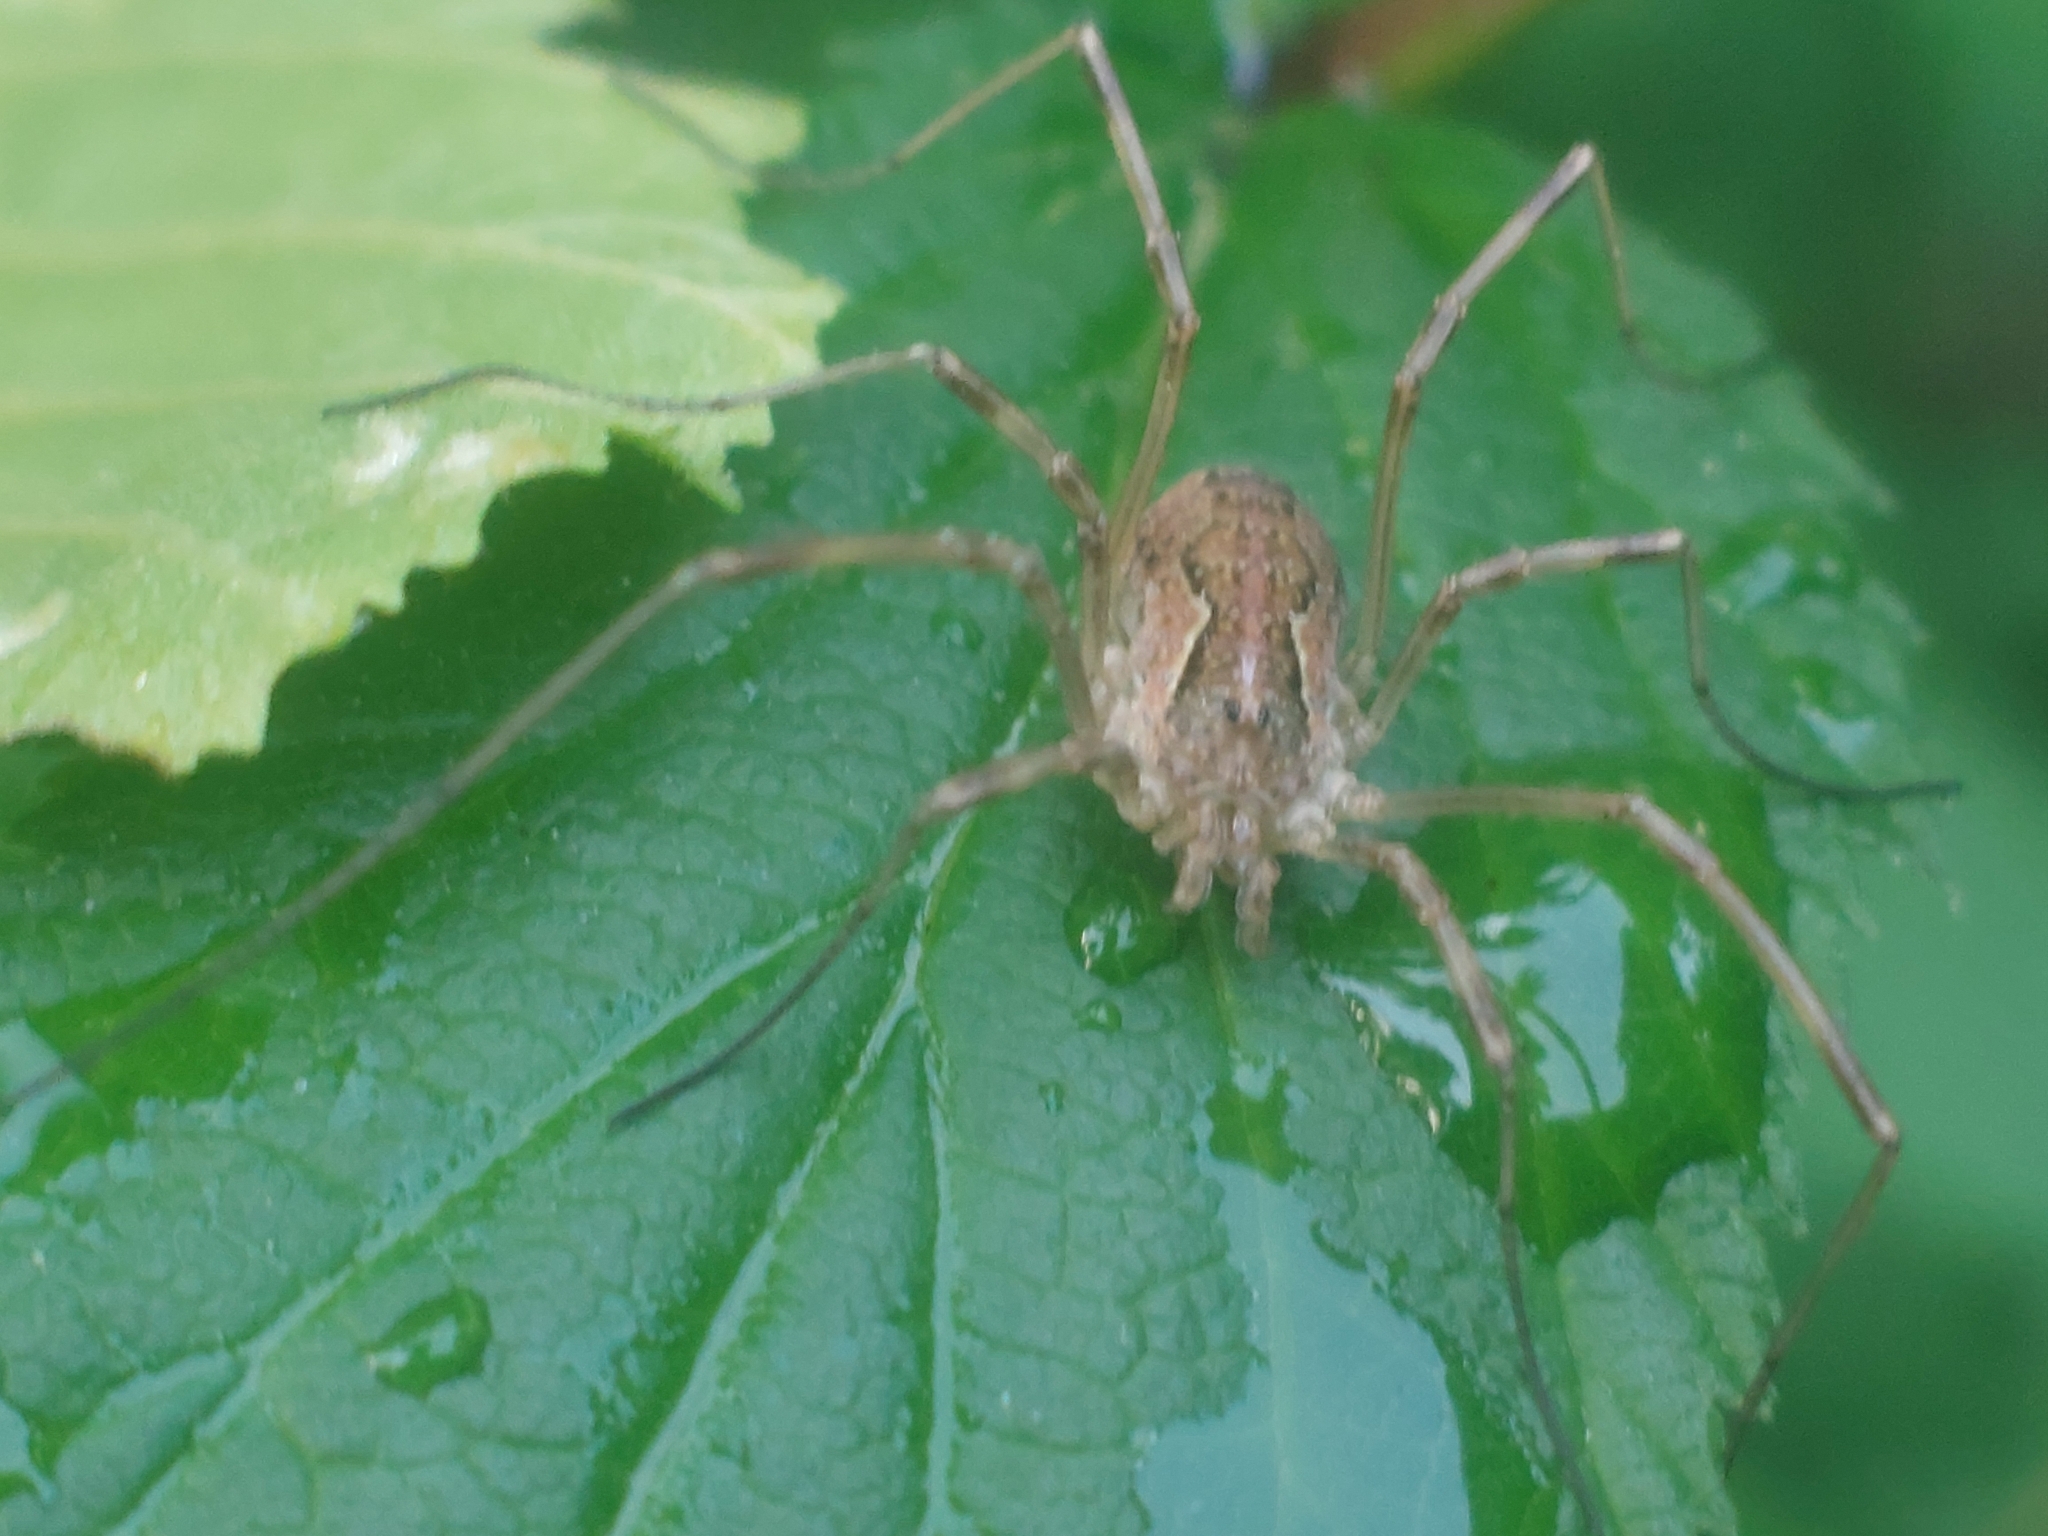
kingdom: Animalia
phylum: Arthropoda
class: Arachnida
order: Opiliones
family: Phalangiidae
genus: Mitopus
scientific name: Mitopus morio
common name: Saddleback harvestman
